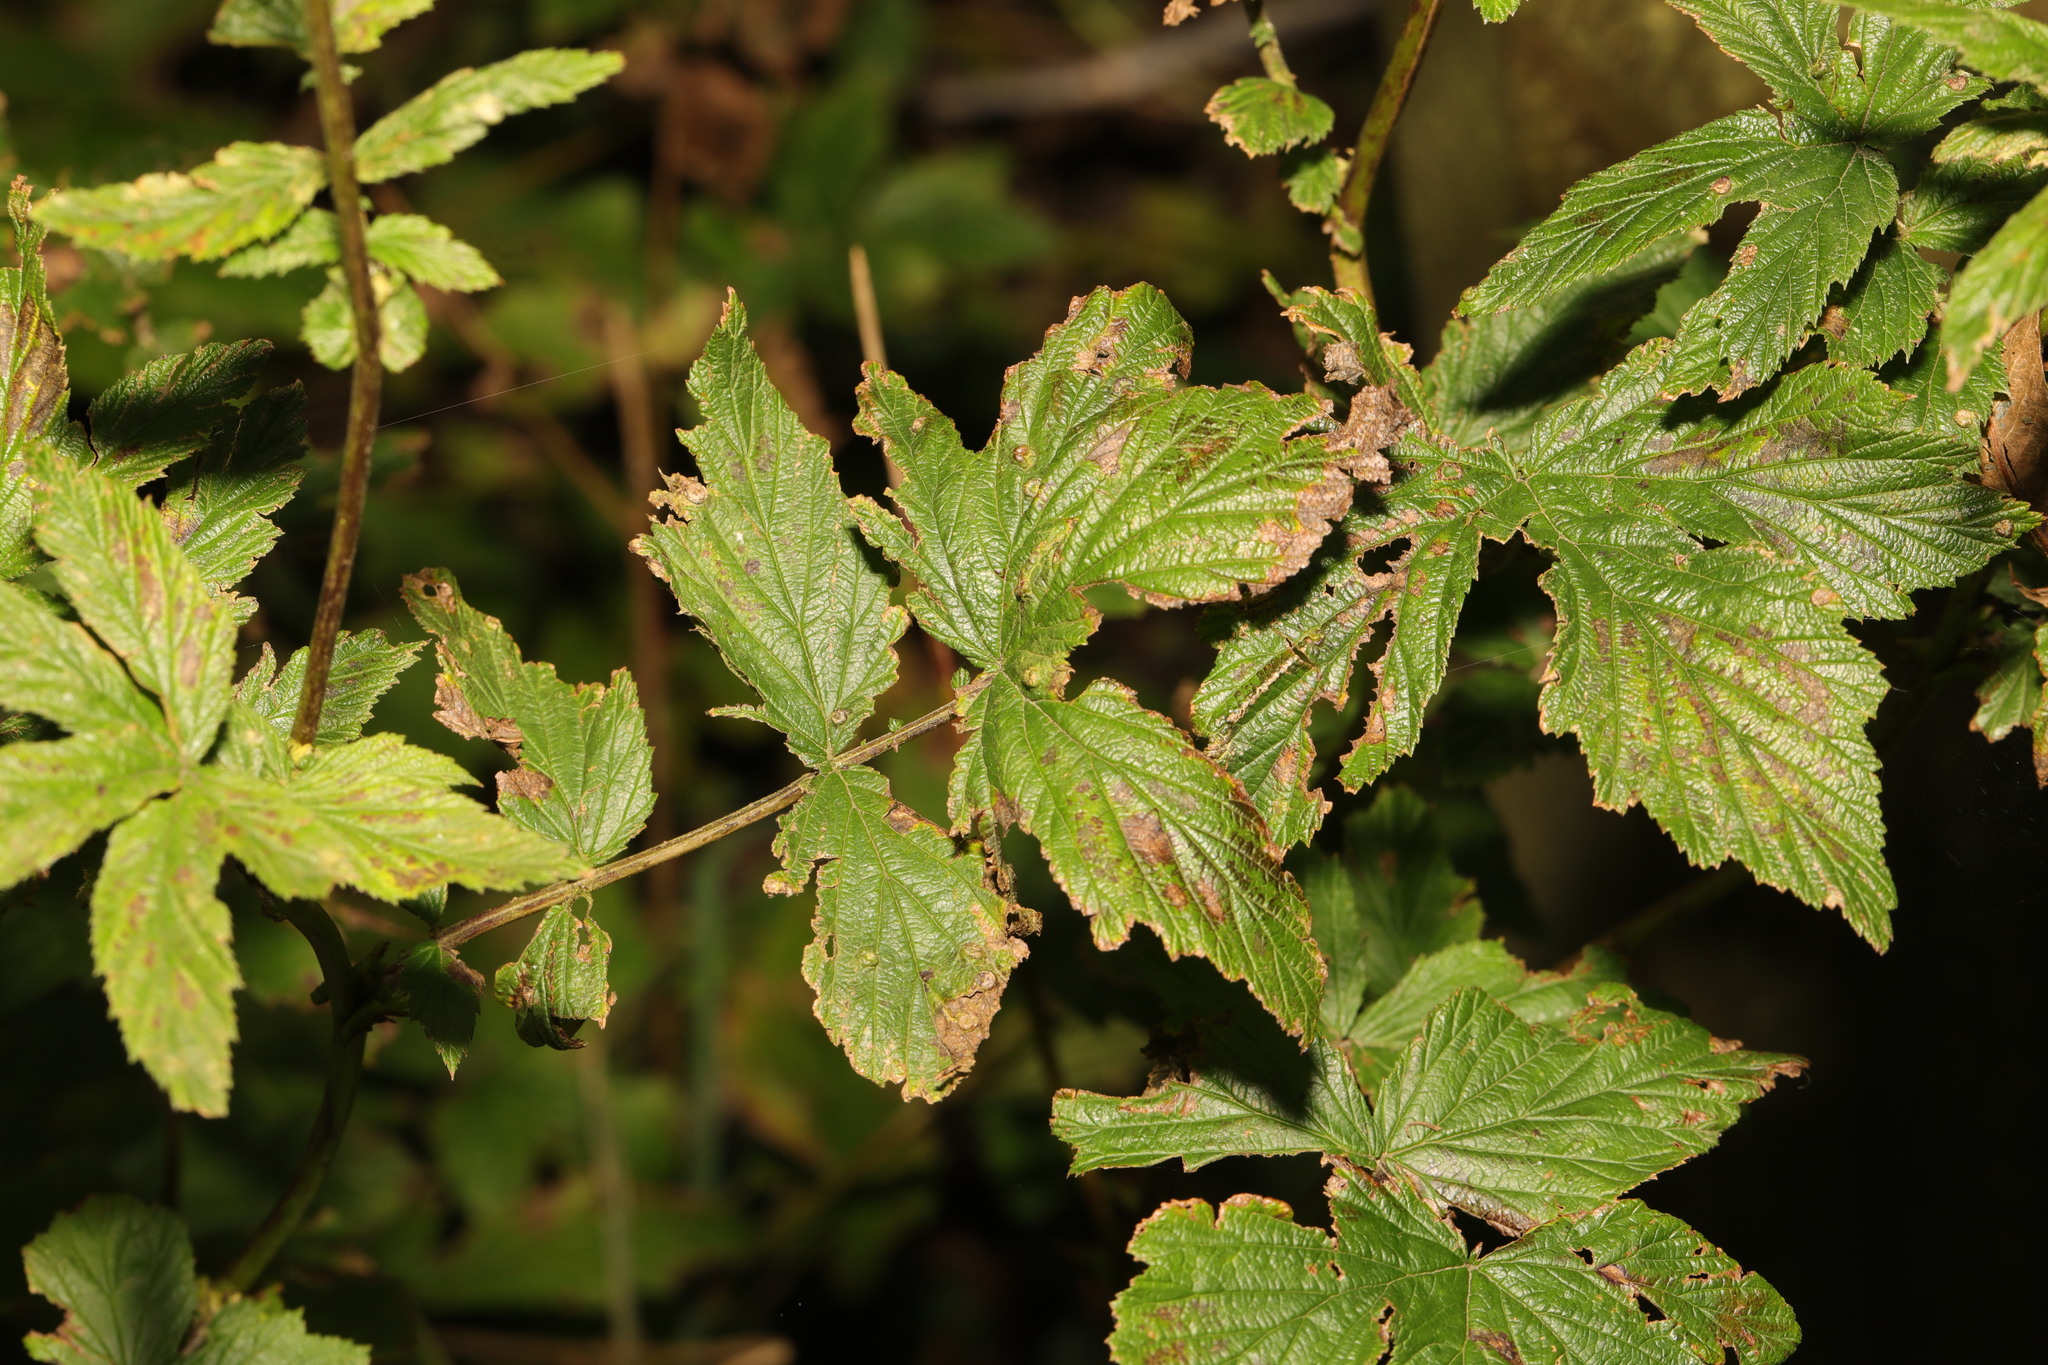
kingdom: Plantae
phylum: Tracheophyta
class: Magnoliopsida
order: Rosales
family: Rosaceae
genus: Filipendula
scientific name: Filipendula ulmaria
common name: Meadowsweet
